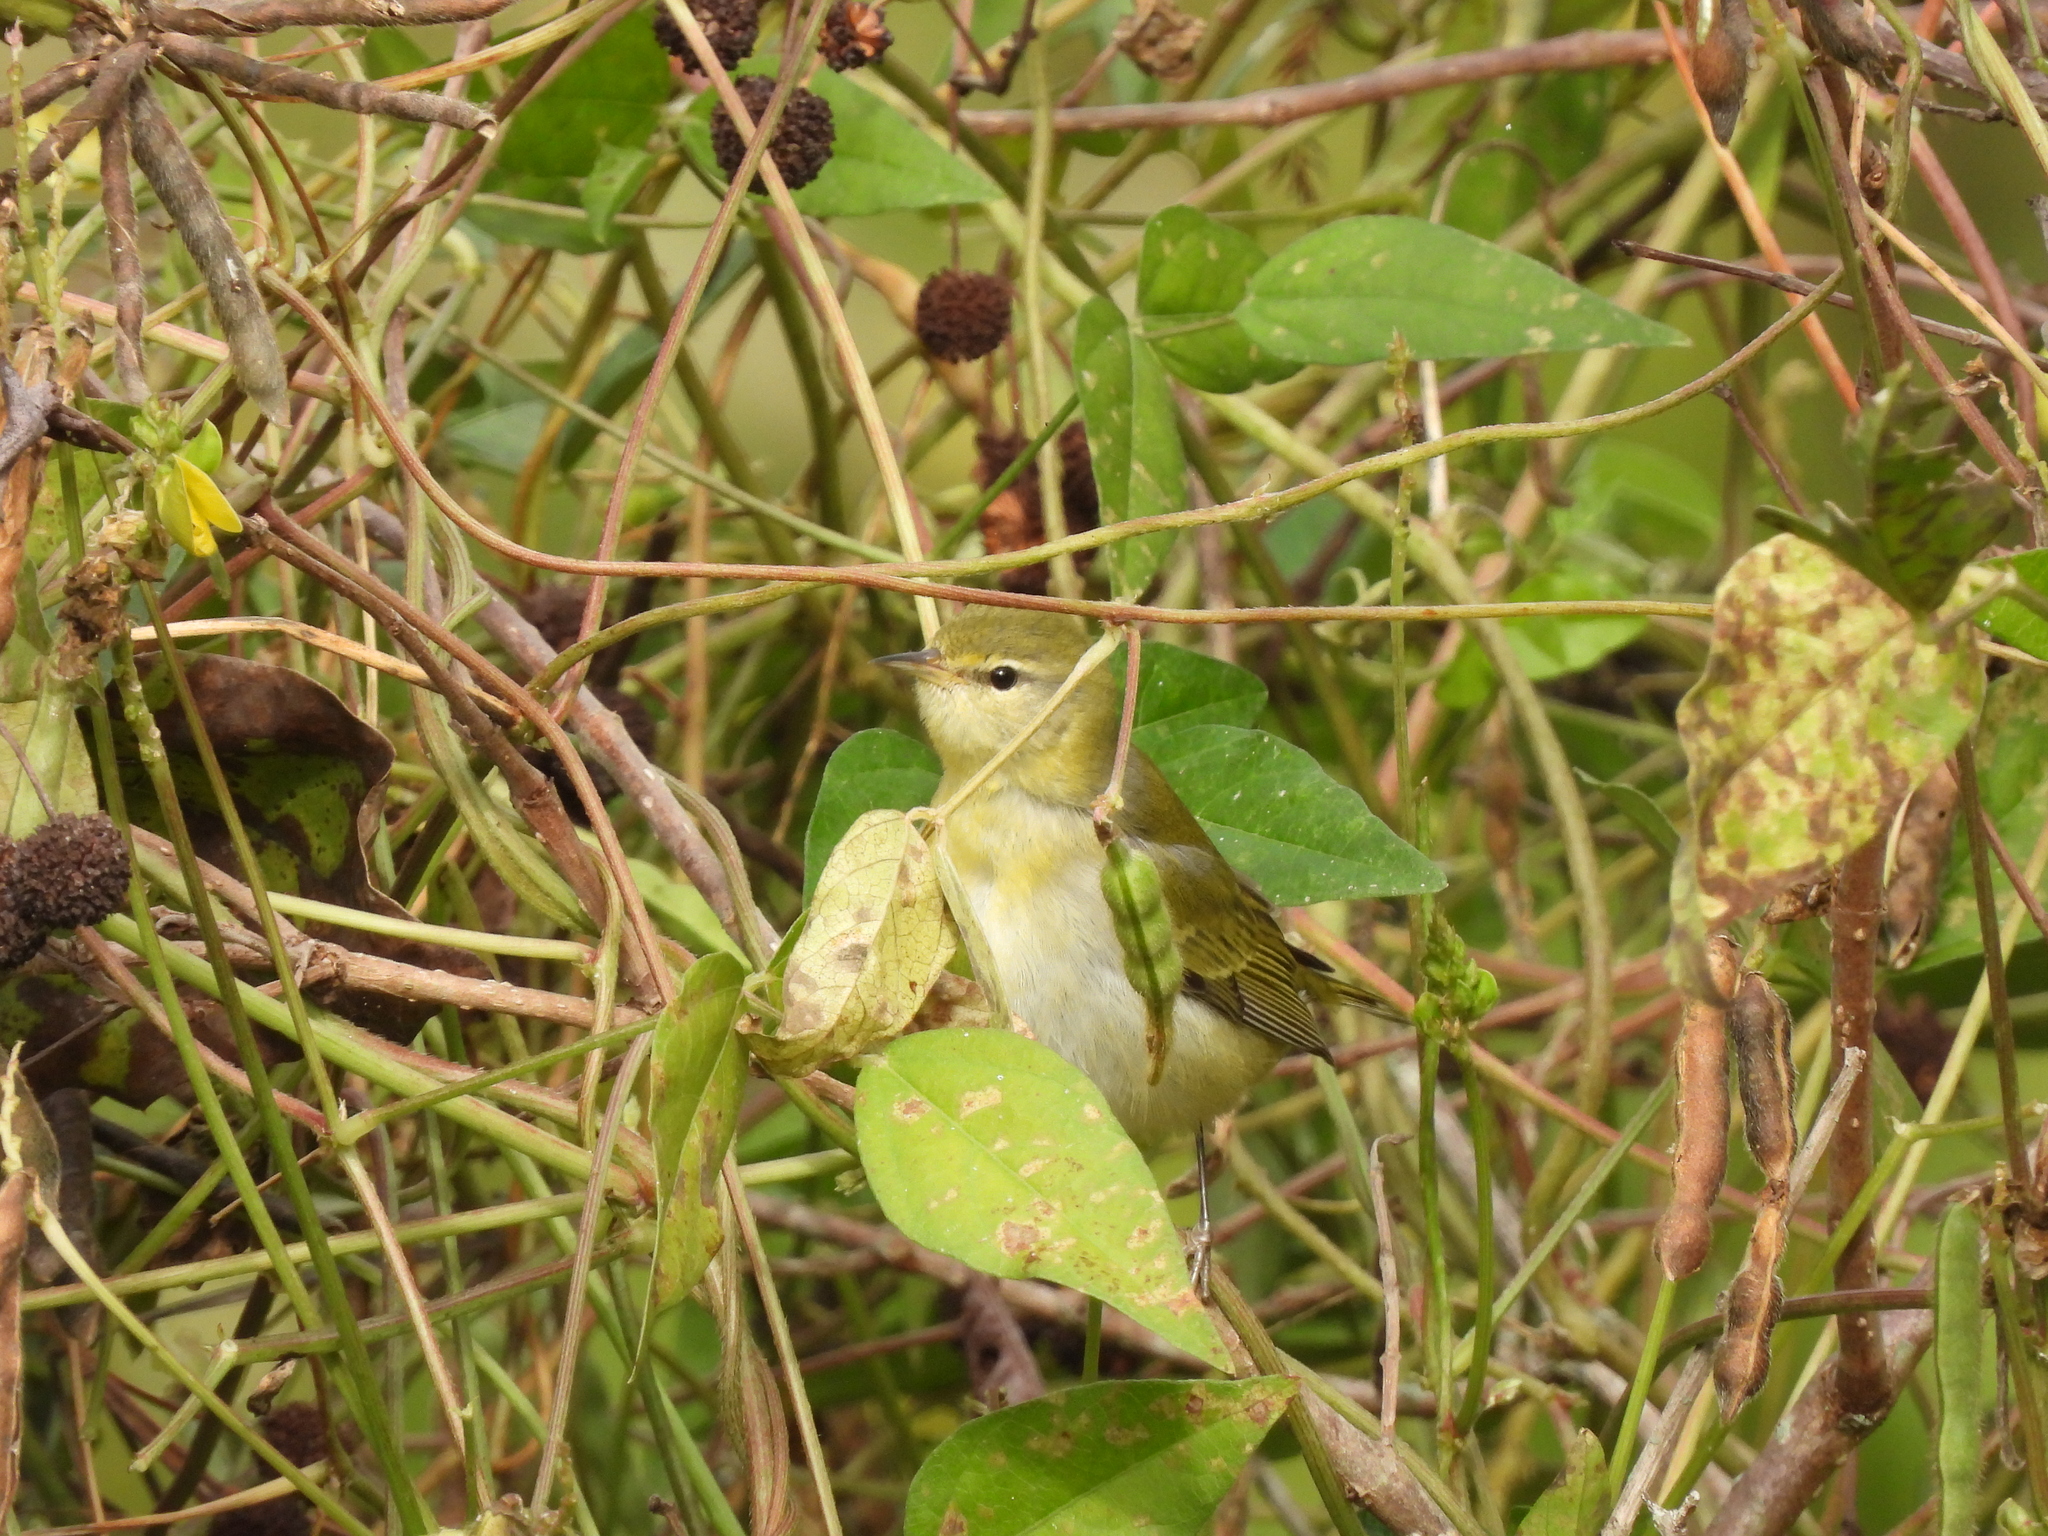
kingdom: Animalia
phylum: Chordata
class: Aves
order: Passeriformes
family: Parulidae
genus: Leiothlypis
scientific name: Leiothlypis peregrina
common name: Tennessee warbler
